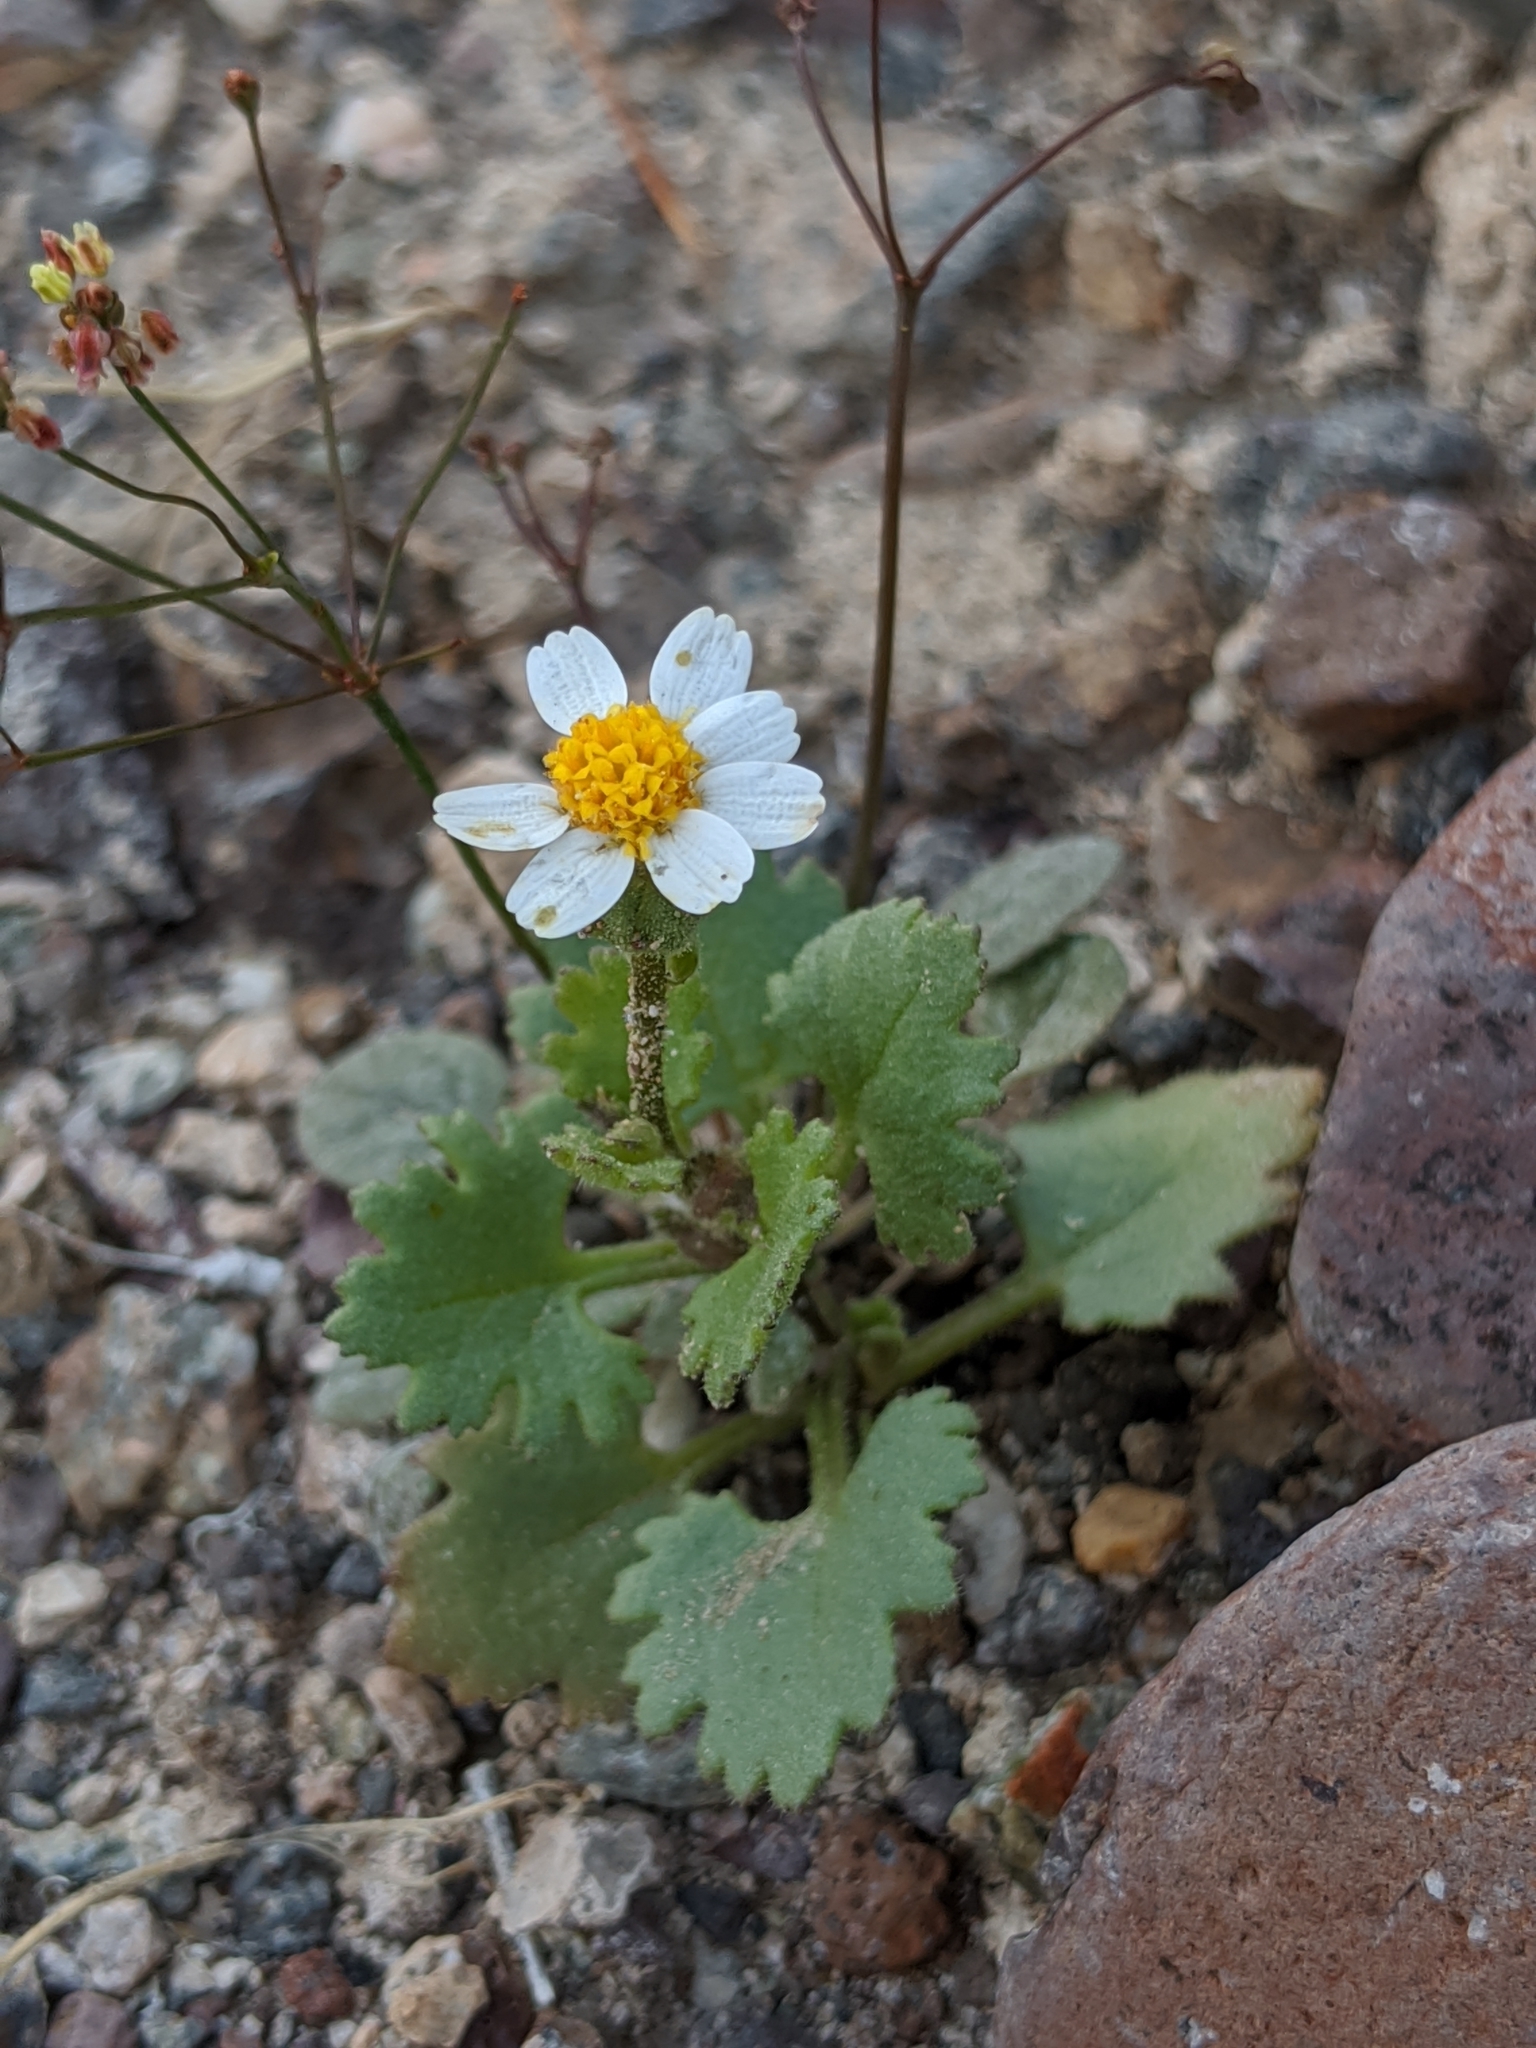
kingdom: Plantae
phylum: Tracheophyta
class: Magnoliopsida
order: Asterales
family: Asteraceae
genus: Laphamia
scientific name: Laphamia emoryi
